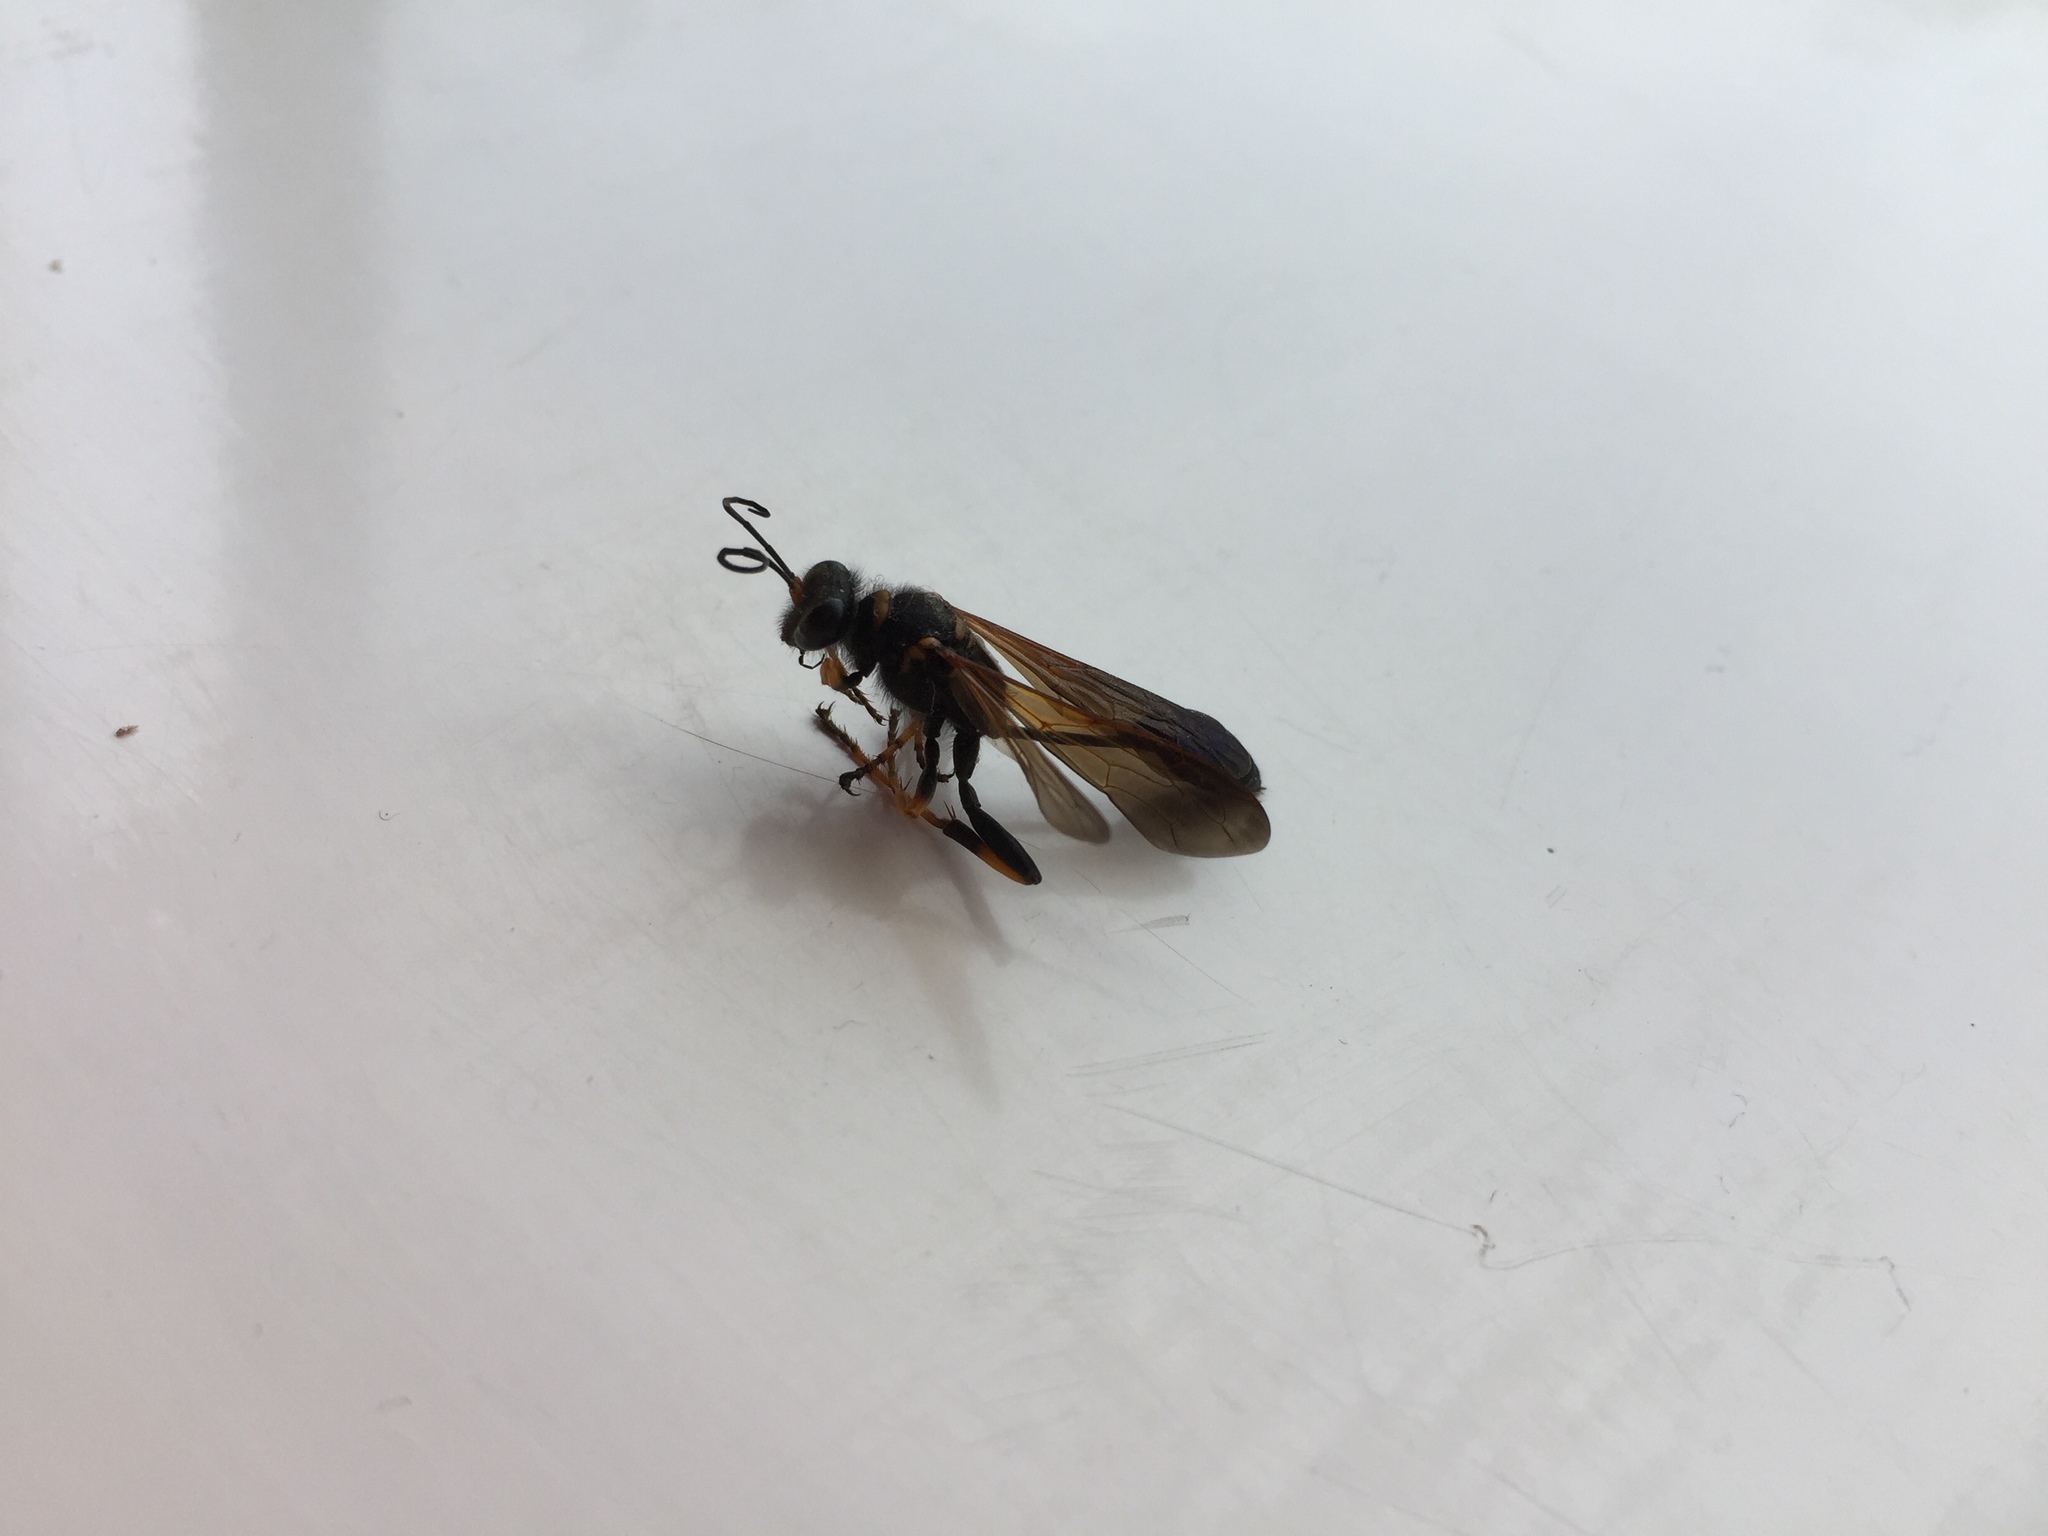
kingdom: Animalia
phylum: Arthropoda
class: Insecta
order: Hymenoptera
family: Sphecidae
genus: Sceliphron
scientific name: Sceliphron caementarium
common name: Mud dauber
